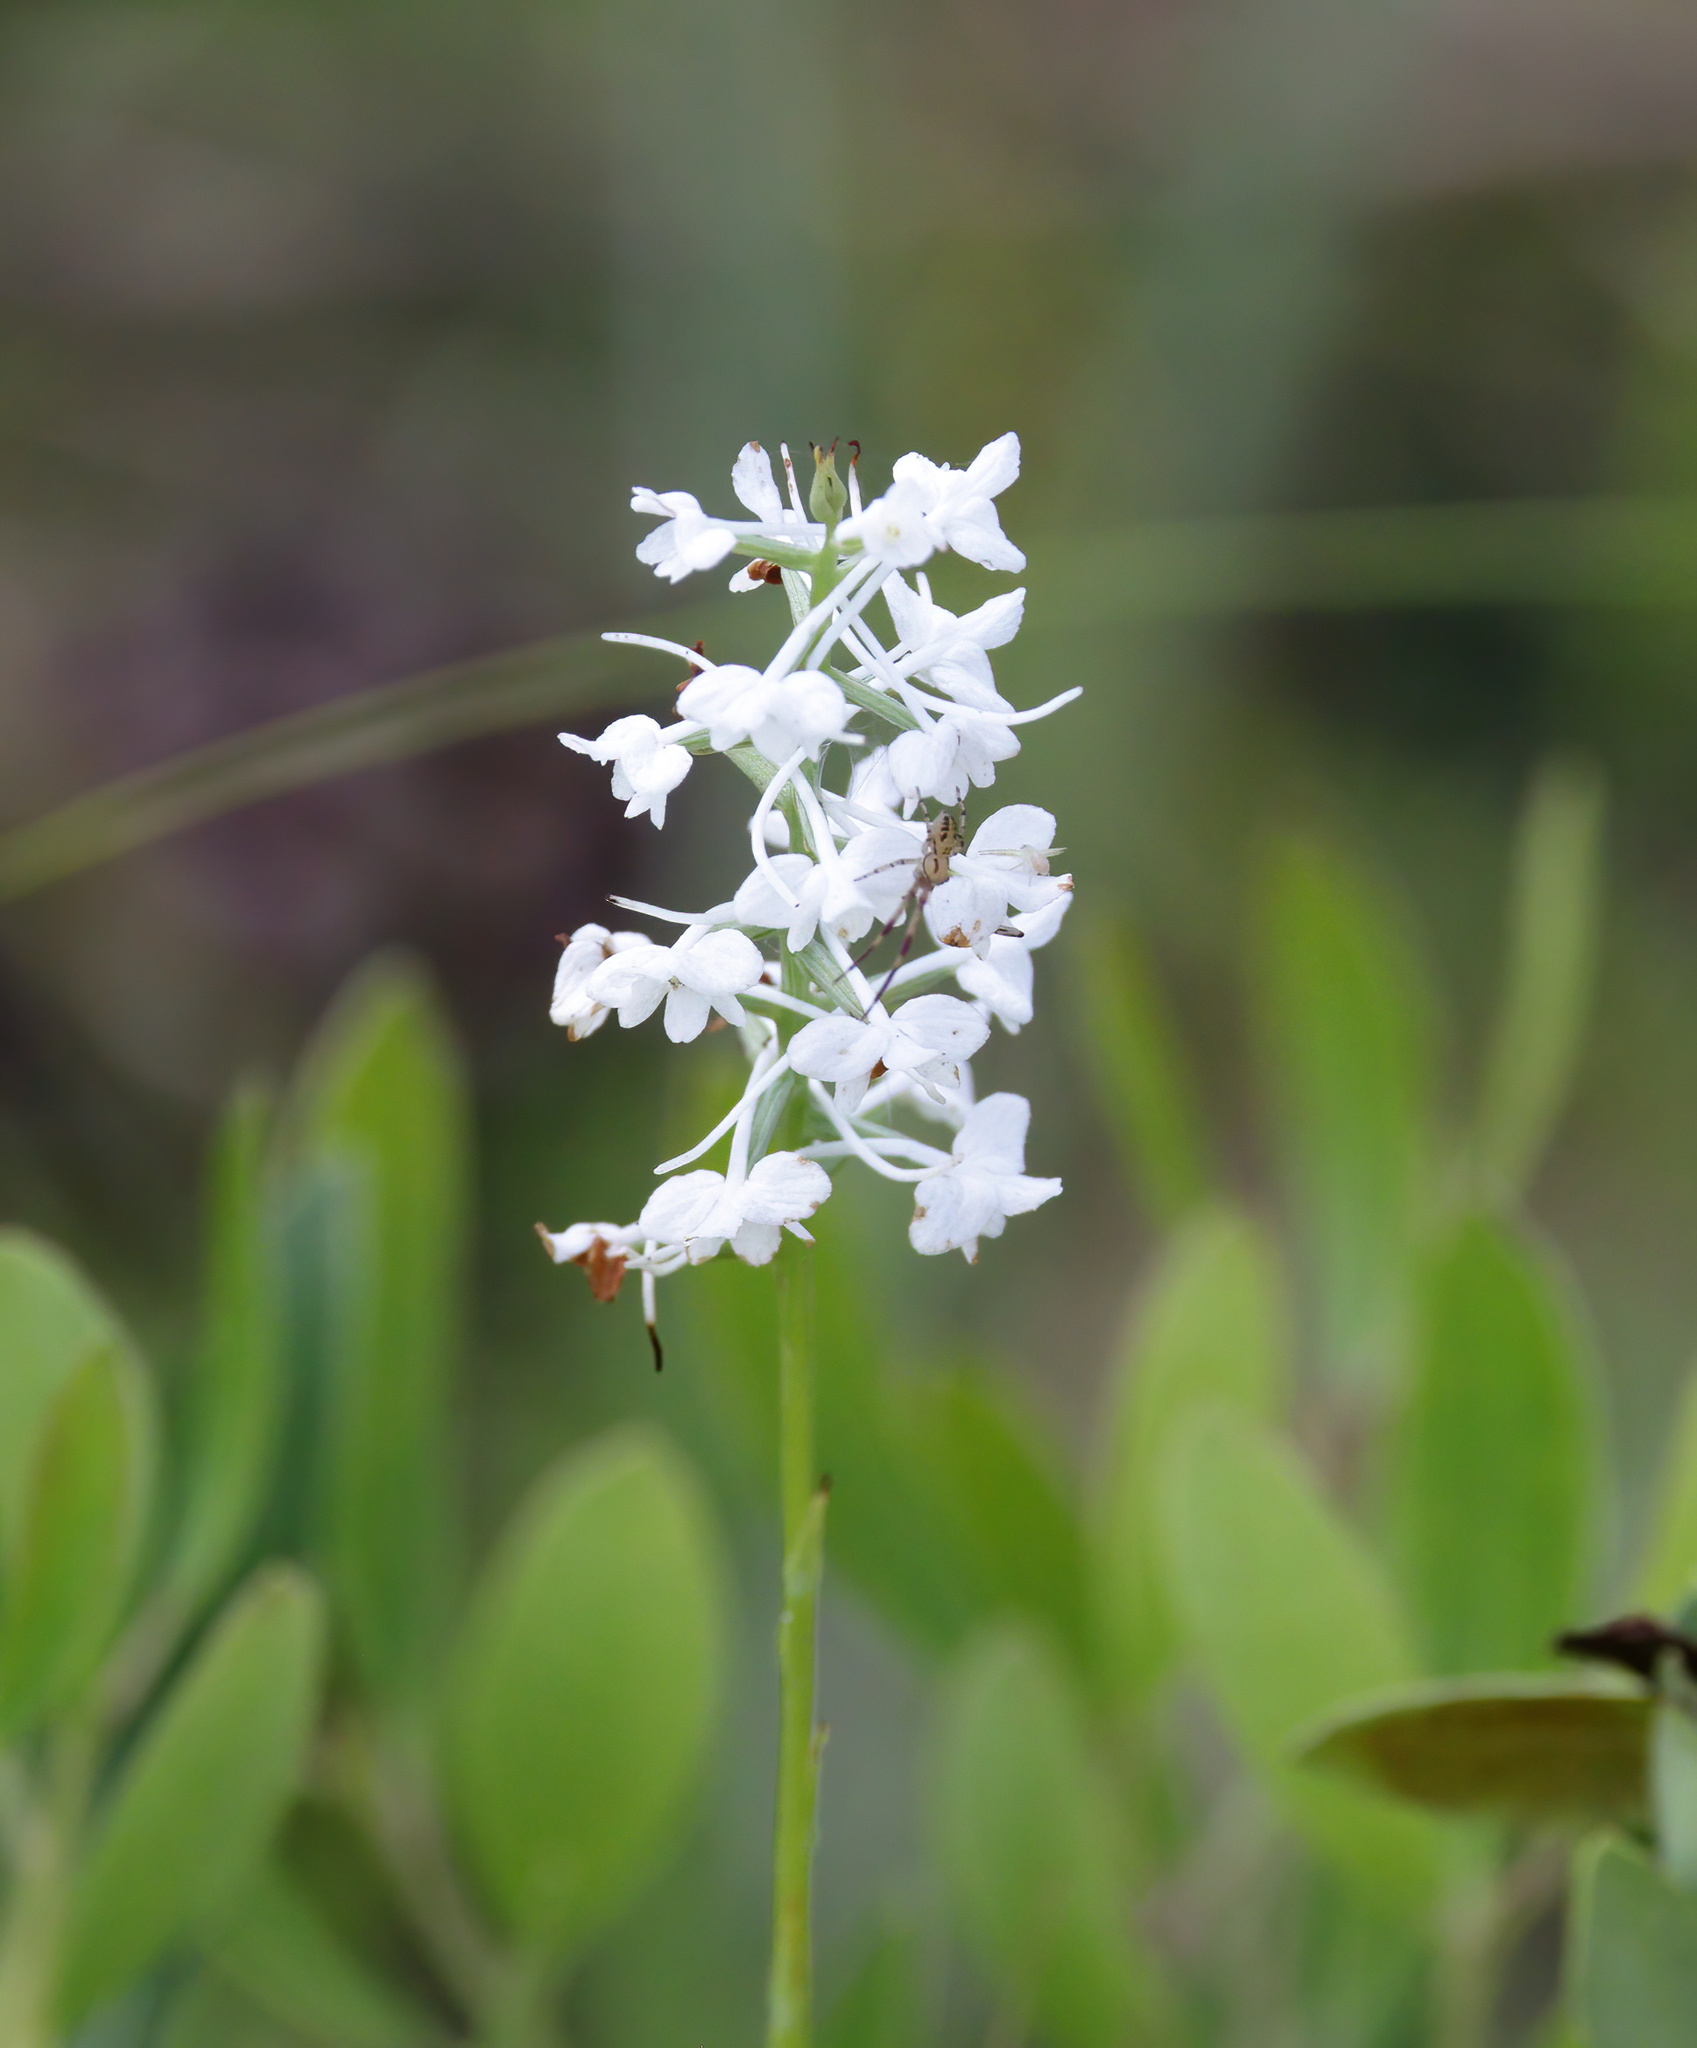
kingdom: Plantae
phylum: Tracheophyta
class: Liliopsida
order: Asparagales
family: Orchidaceae
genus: Platanthera
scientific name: Platanthera nivea
